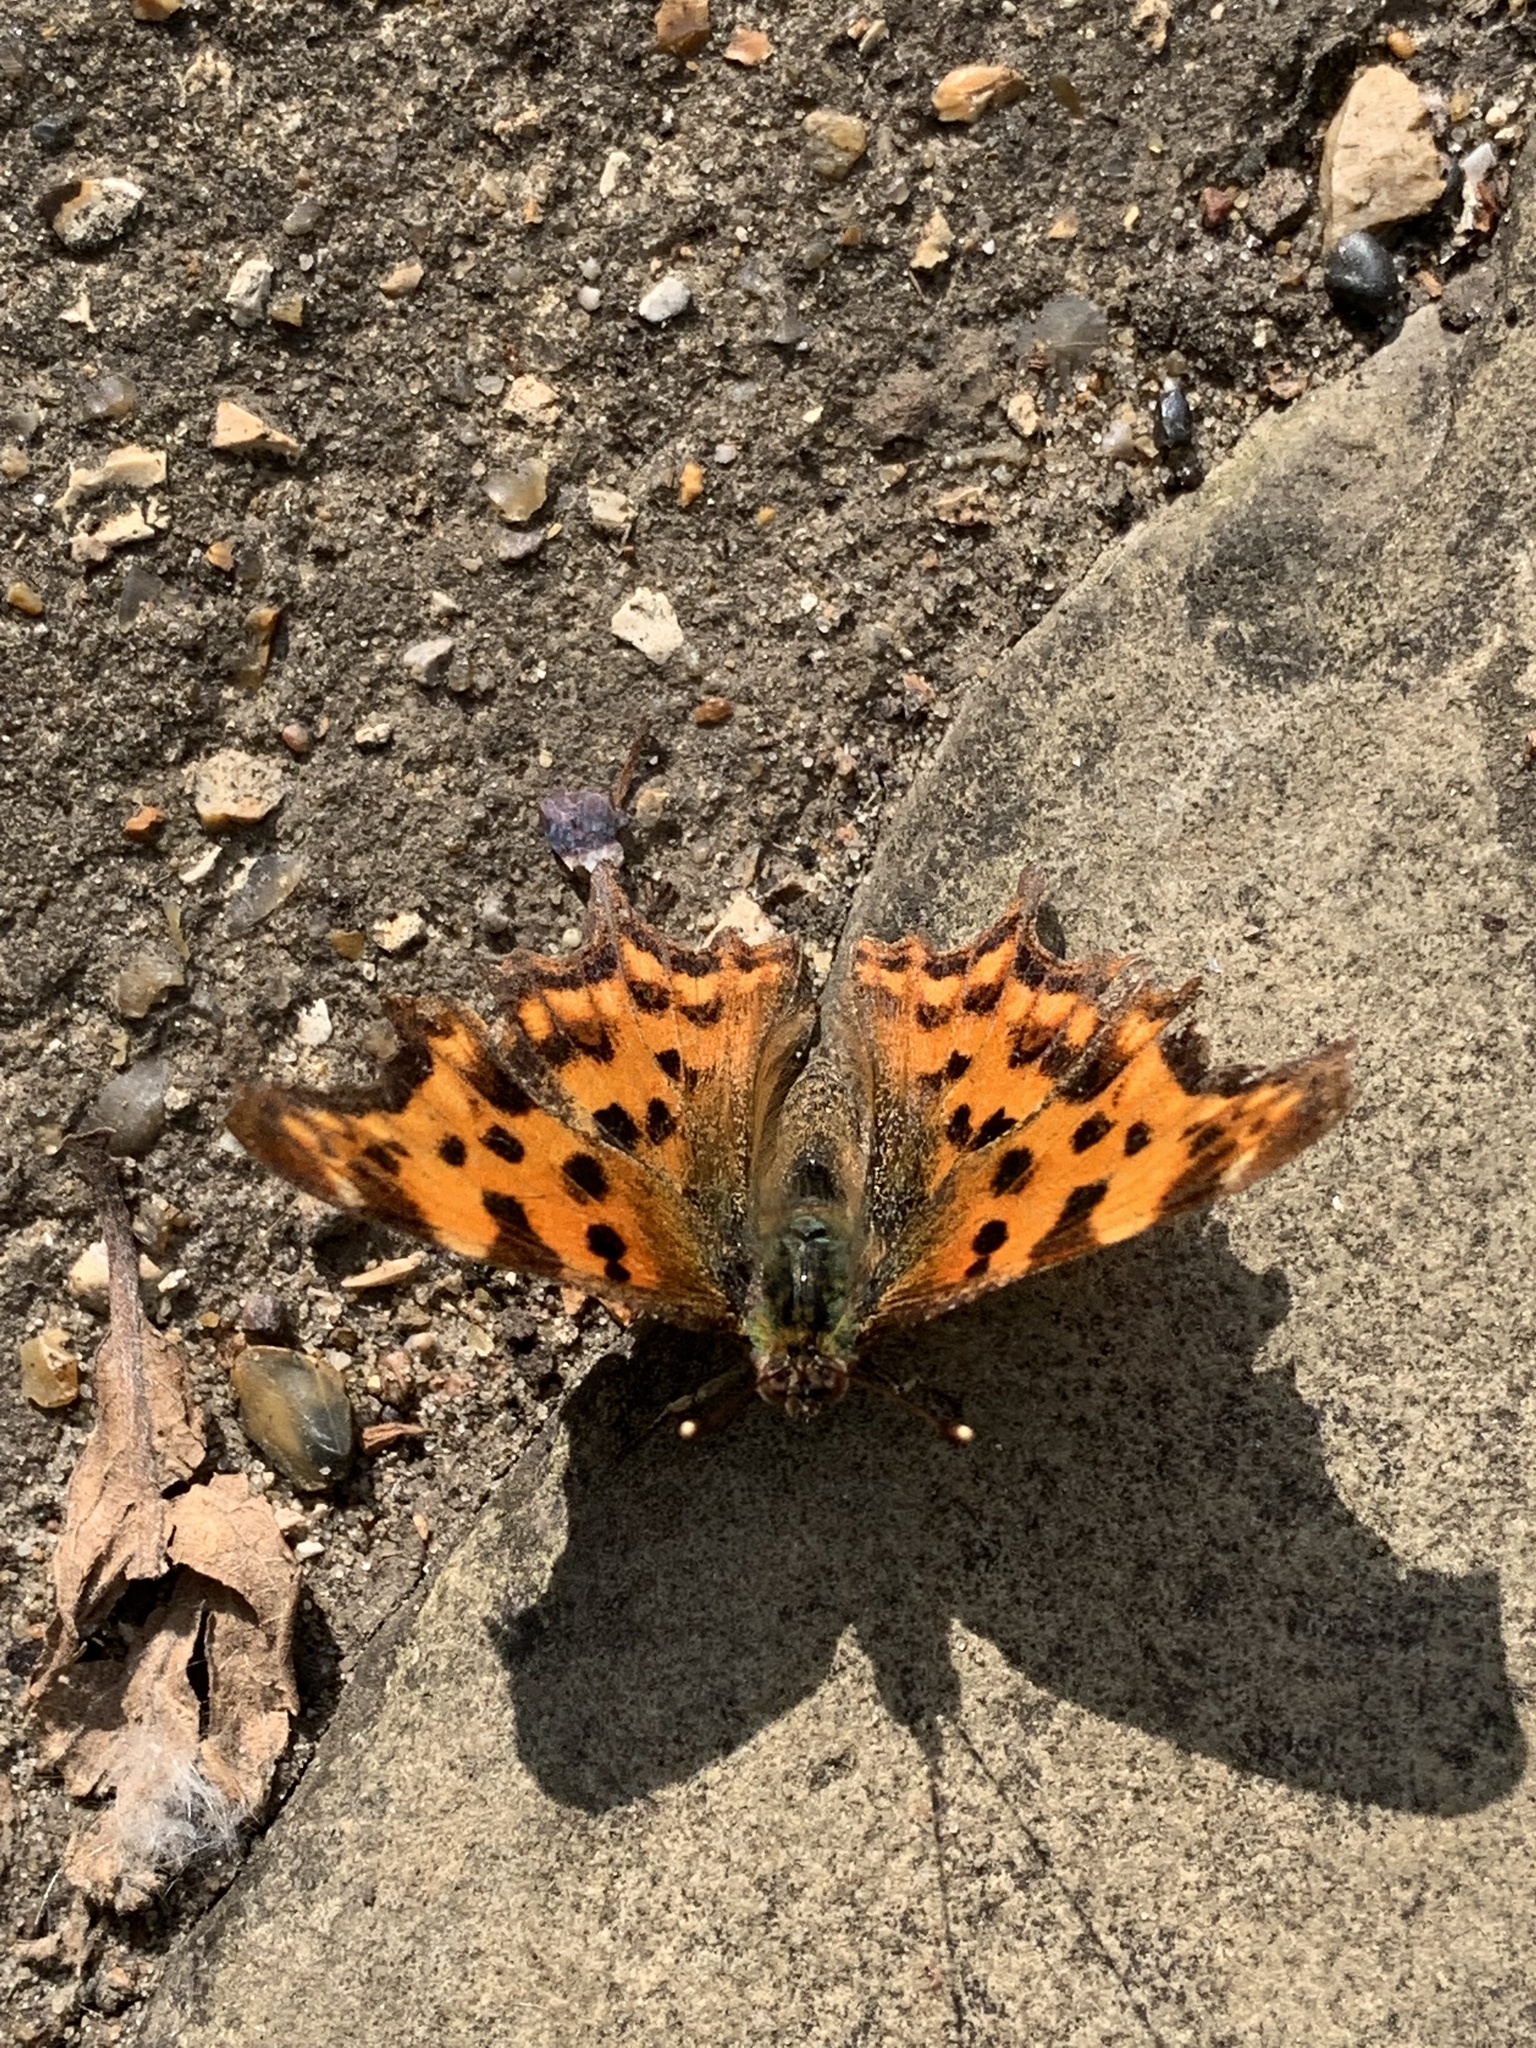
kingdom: Animalia
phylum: Arthropoda
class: Insecta
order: Lepidoptera
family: Nymphalidae
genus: Polygonia
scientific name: Polygonia c-album
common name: Comma
